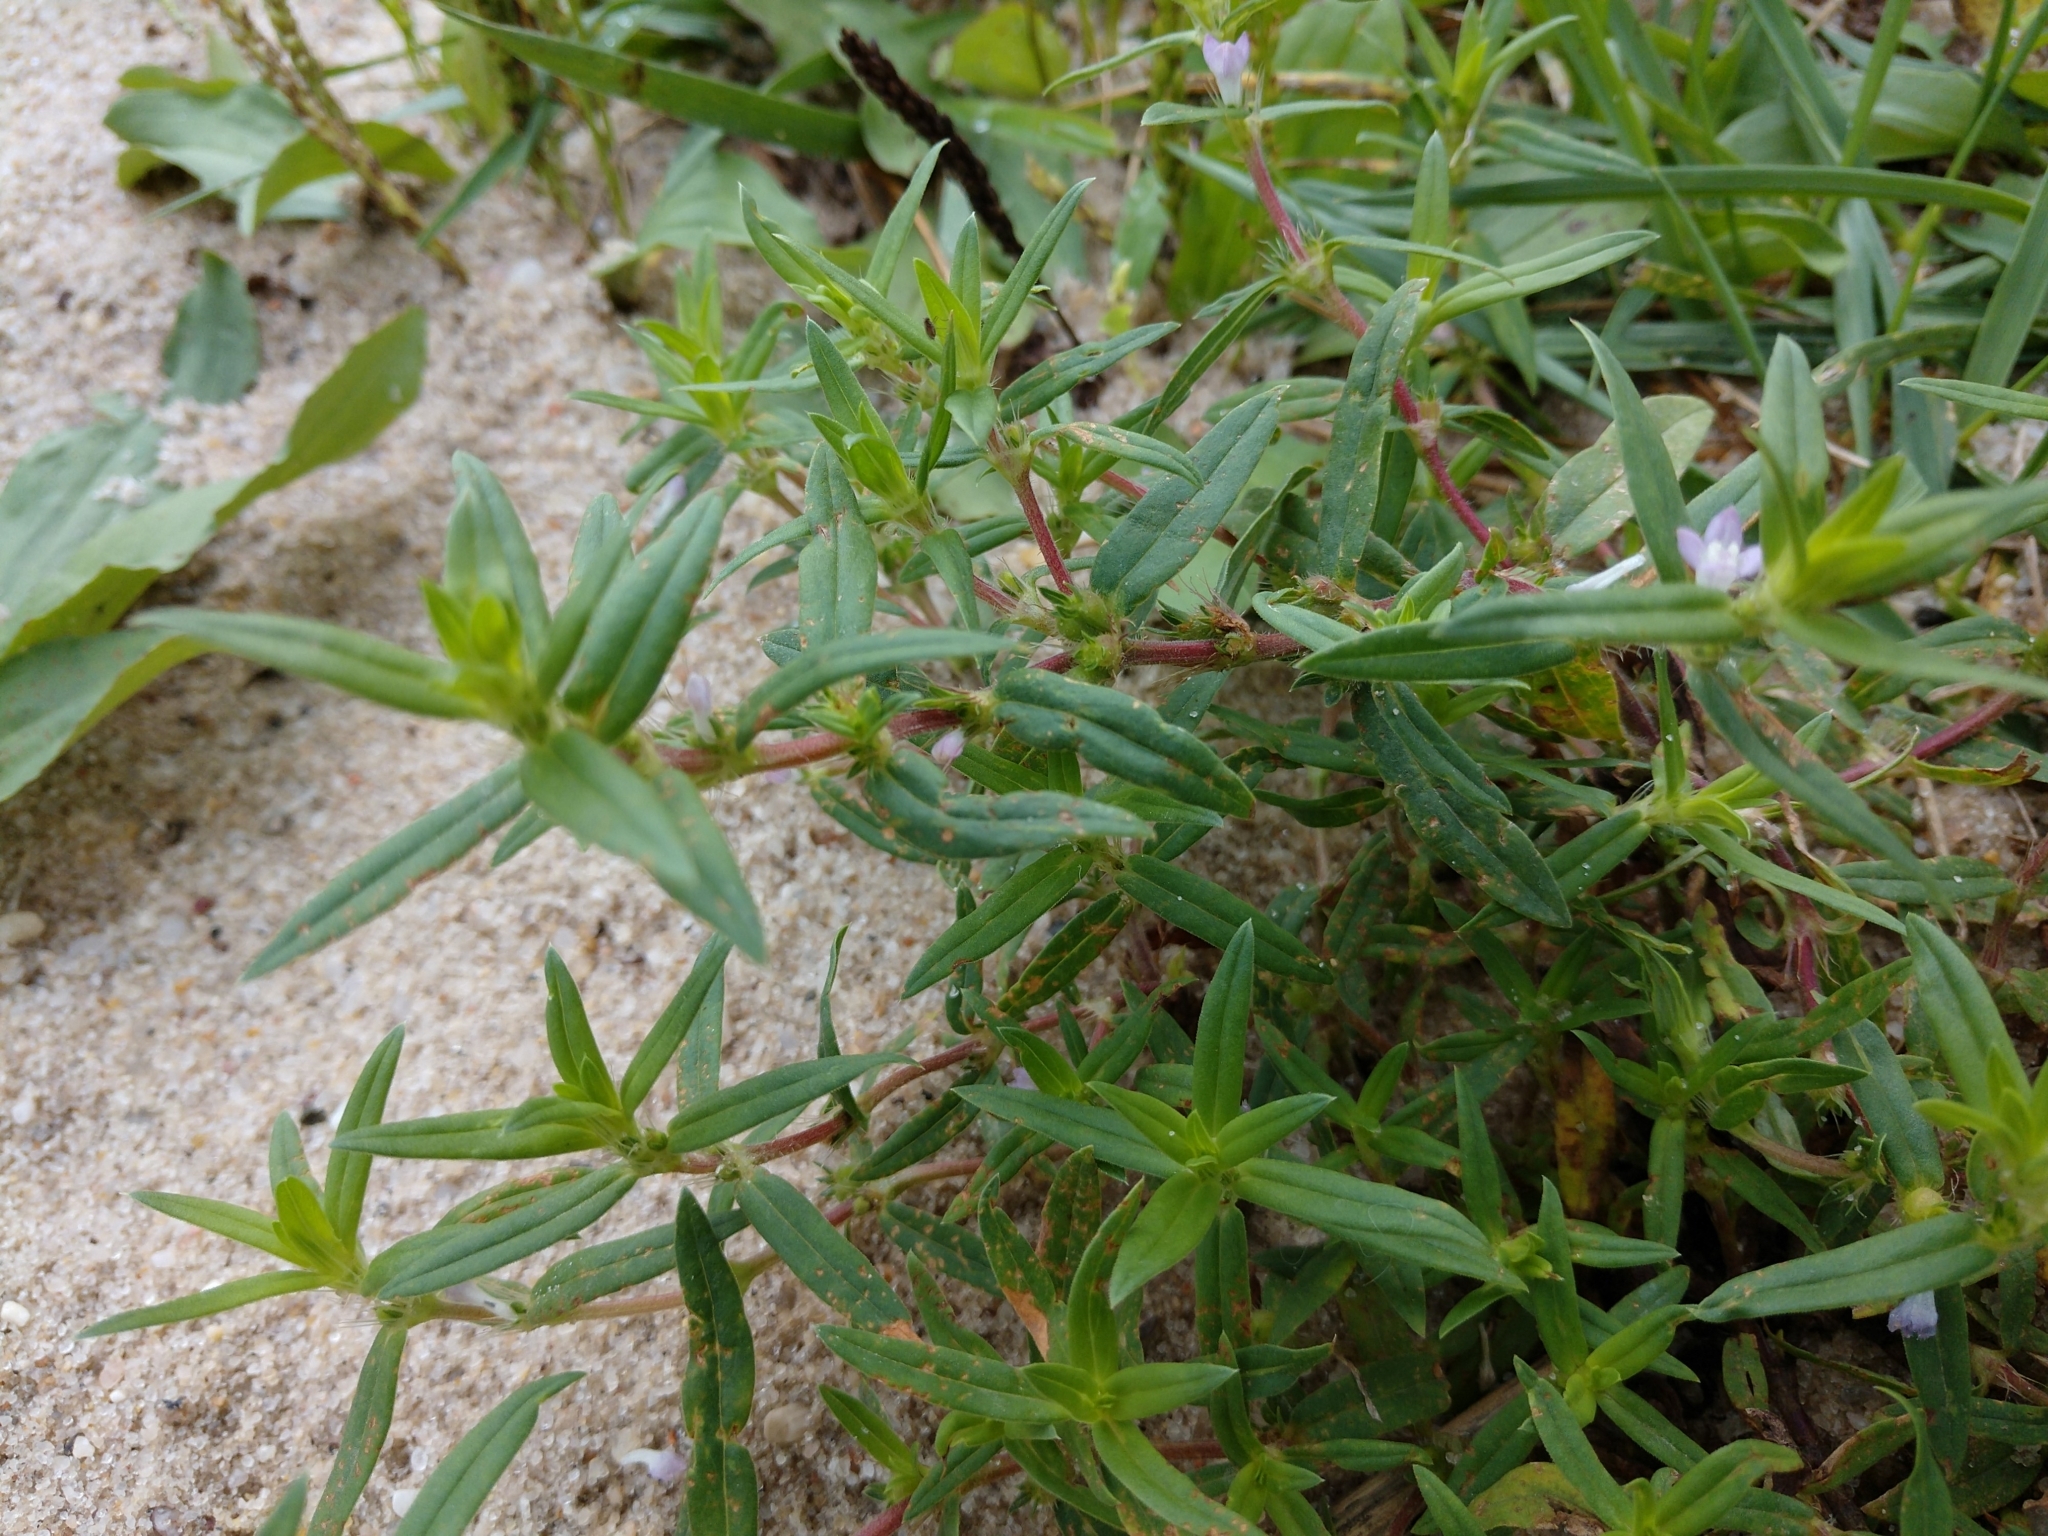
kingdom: Plantae
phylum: Tracheophyta
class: Magnoliopsida
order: Gentianales
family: Rubiaceae
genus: Hexasepalum
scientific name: Hexasepalum teres
